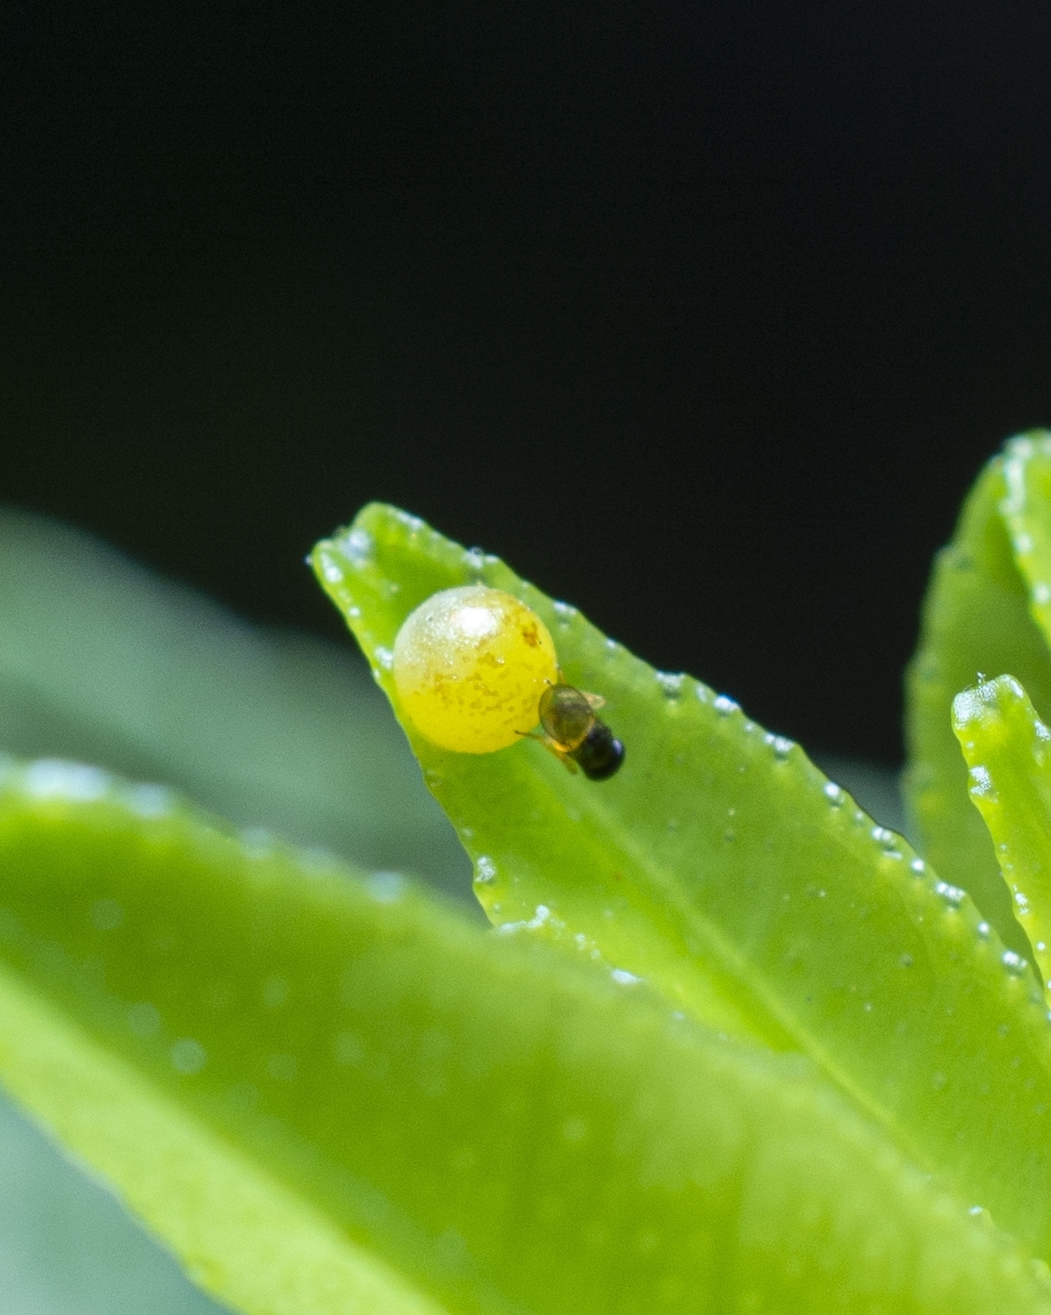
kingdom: Animalia
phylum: Arthropoda
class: Insecta
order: Lepidoptera
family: Papilionidae
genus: Papilio
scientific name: Papilio polytes
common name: Common mormon
